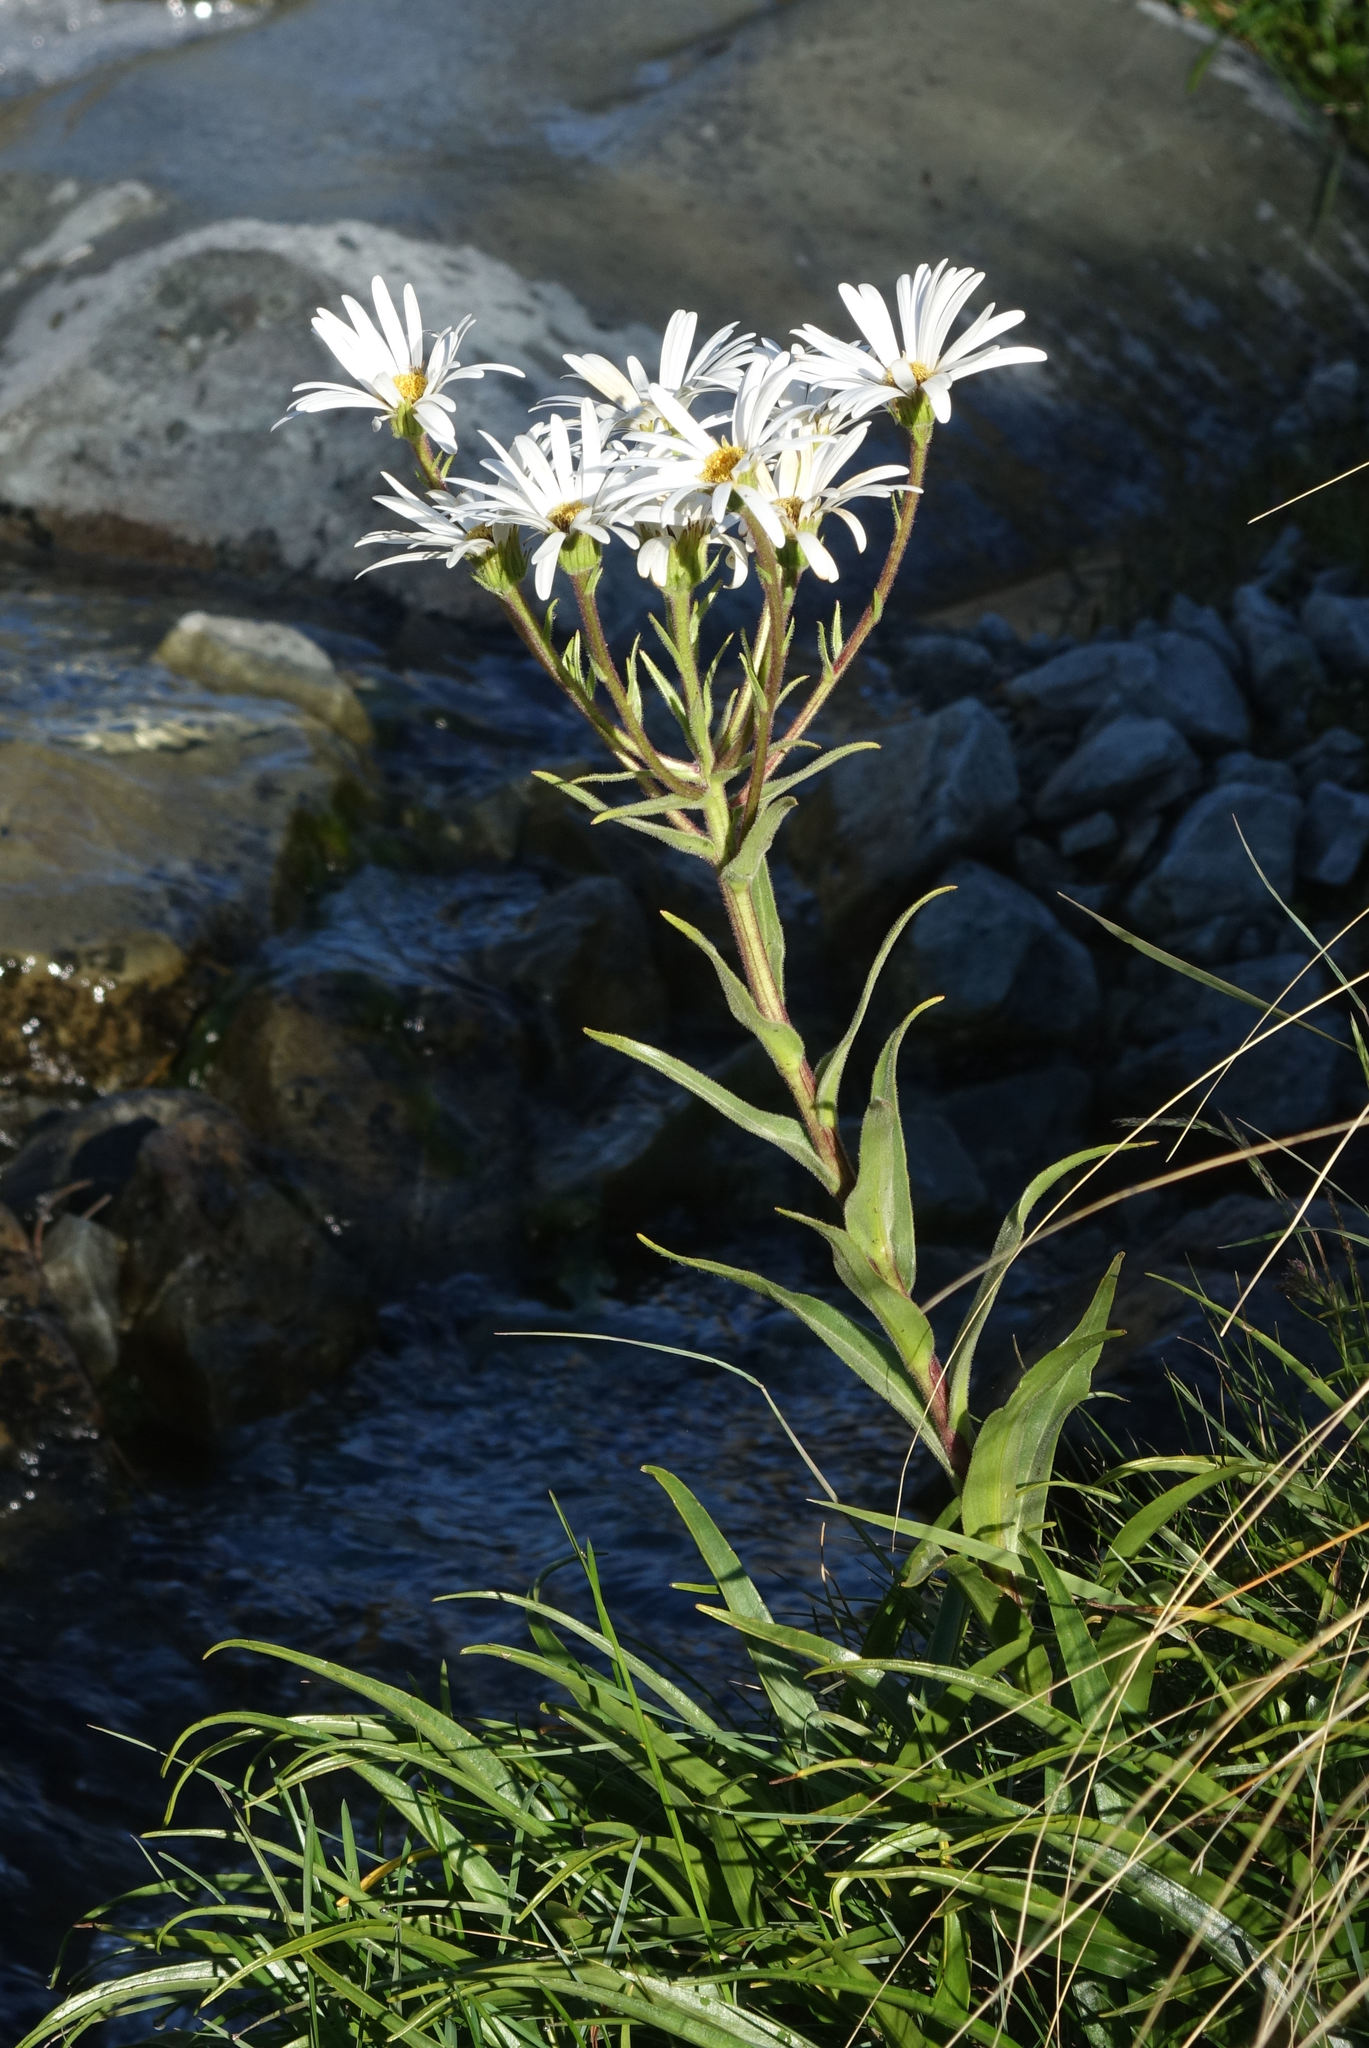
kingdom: Plantae
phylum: Tracheophyta
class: Magnoliopsida
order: Asterales
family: Asteraceae
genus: Dolichoglottis
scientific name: Dolichoglottis scorzoneroides
